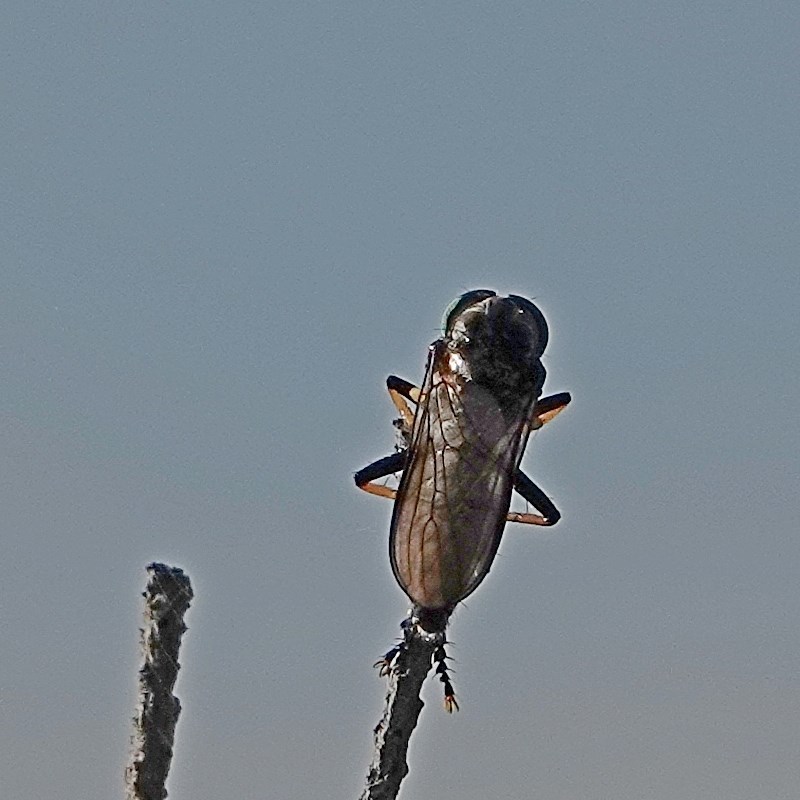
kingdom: Animalia
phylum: Arthropoda
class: Insecta
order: Diptera
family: Asilidae
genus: Ommatius
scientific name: Ommatius coeraebus
